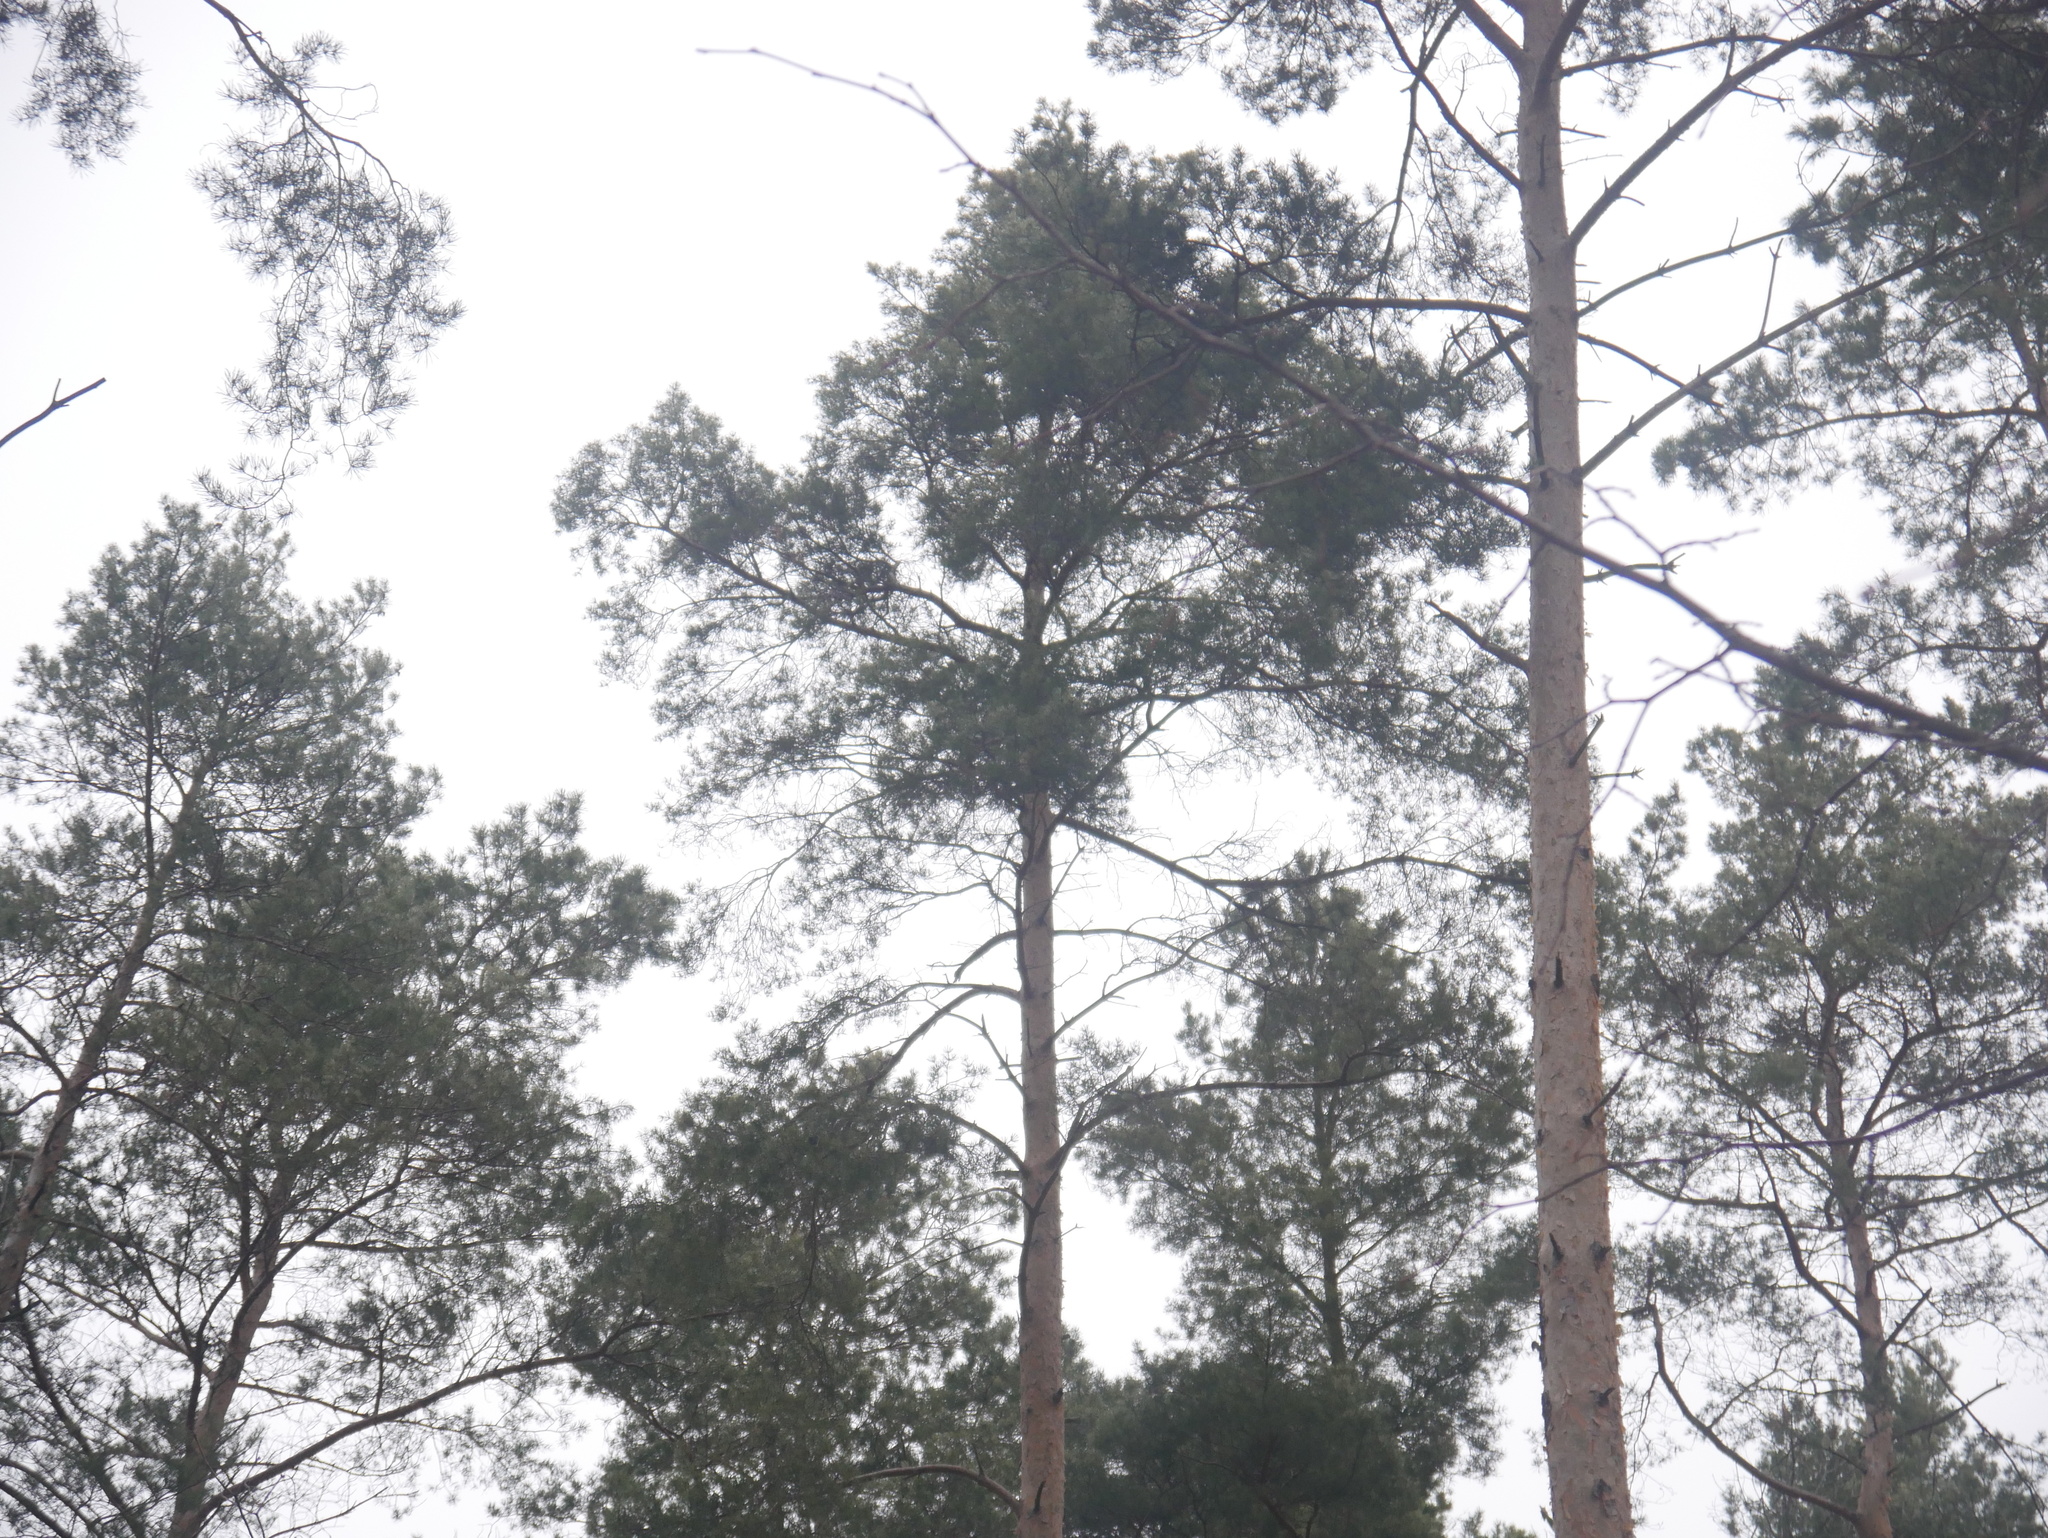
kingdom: Plantae
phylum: Tracheophyta
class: Pinopsida
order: Pinales
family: Pinaceae
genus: Pinus
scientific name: Pinus sylvestris
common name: Scots pine
